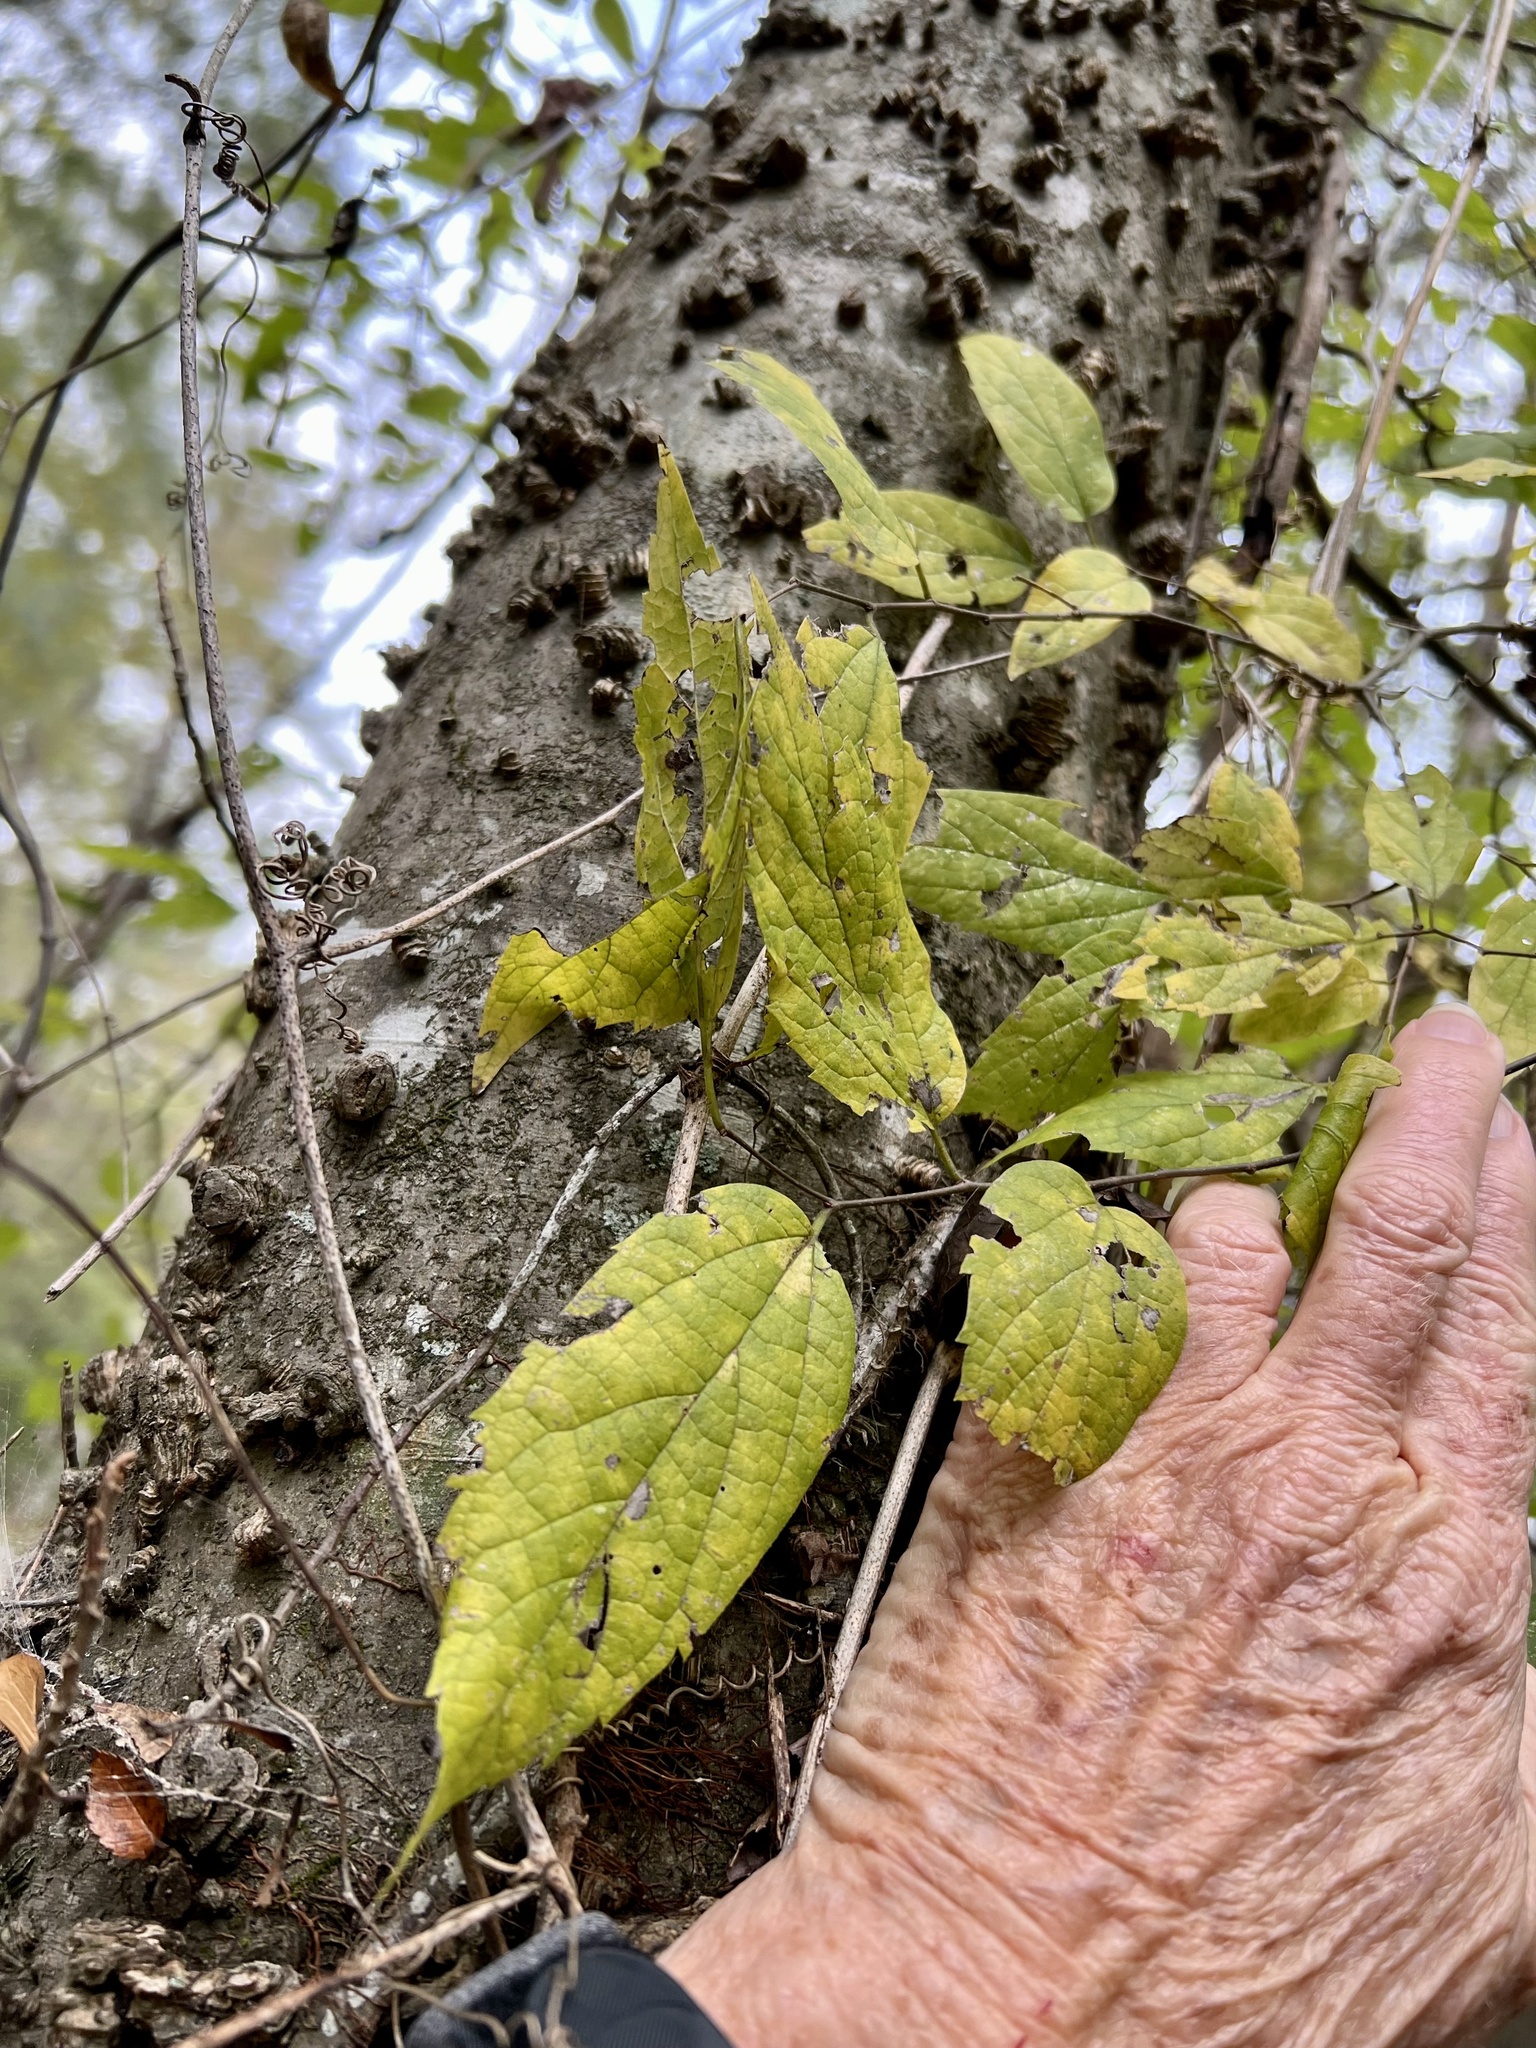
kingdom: Plantae
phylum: Tracheophyta
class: Magnoliopsida
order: Rosales
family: Cannabaceae
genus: Celtis
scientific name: Celtis laevigata
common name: Sugarberry
